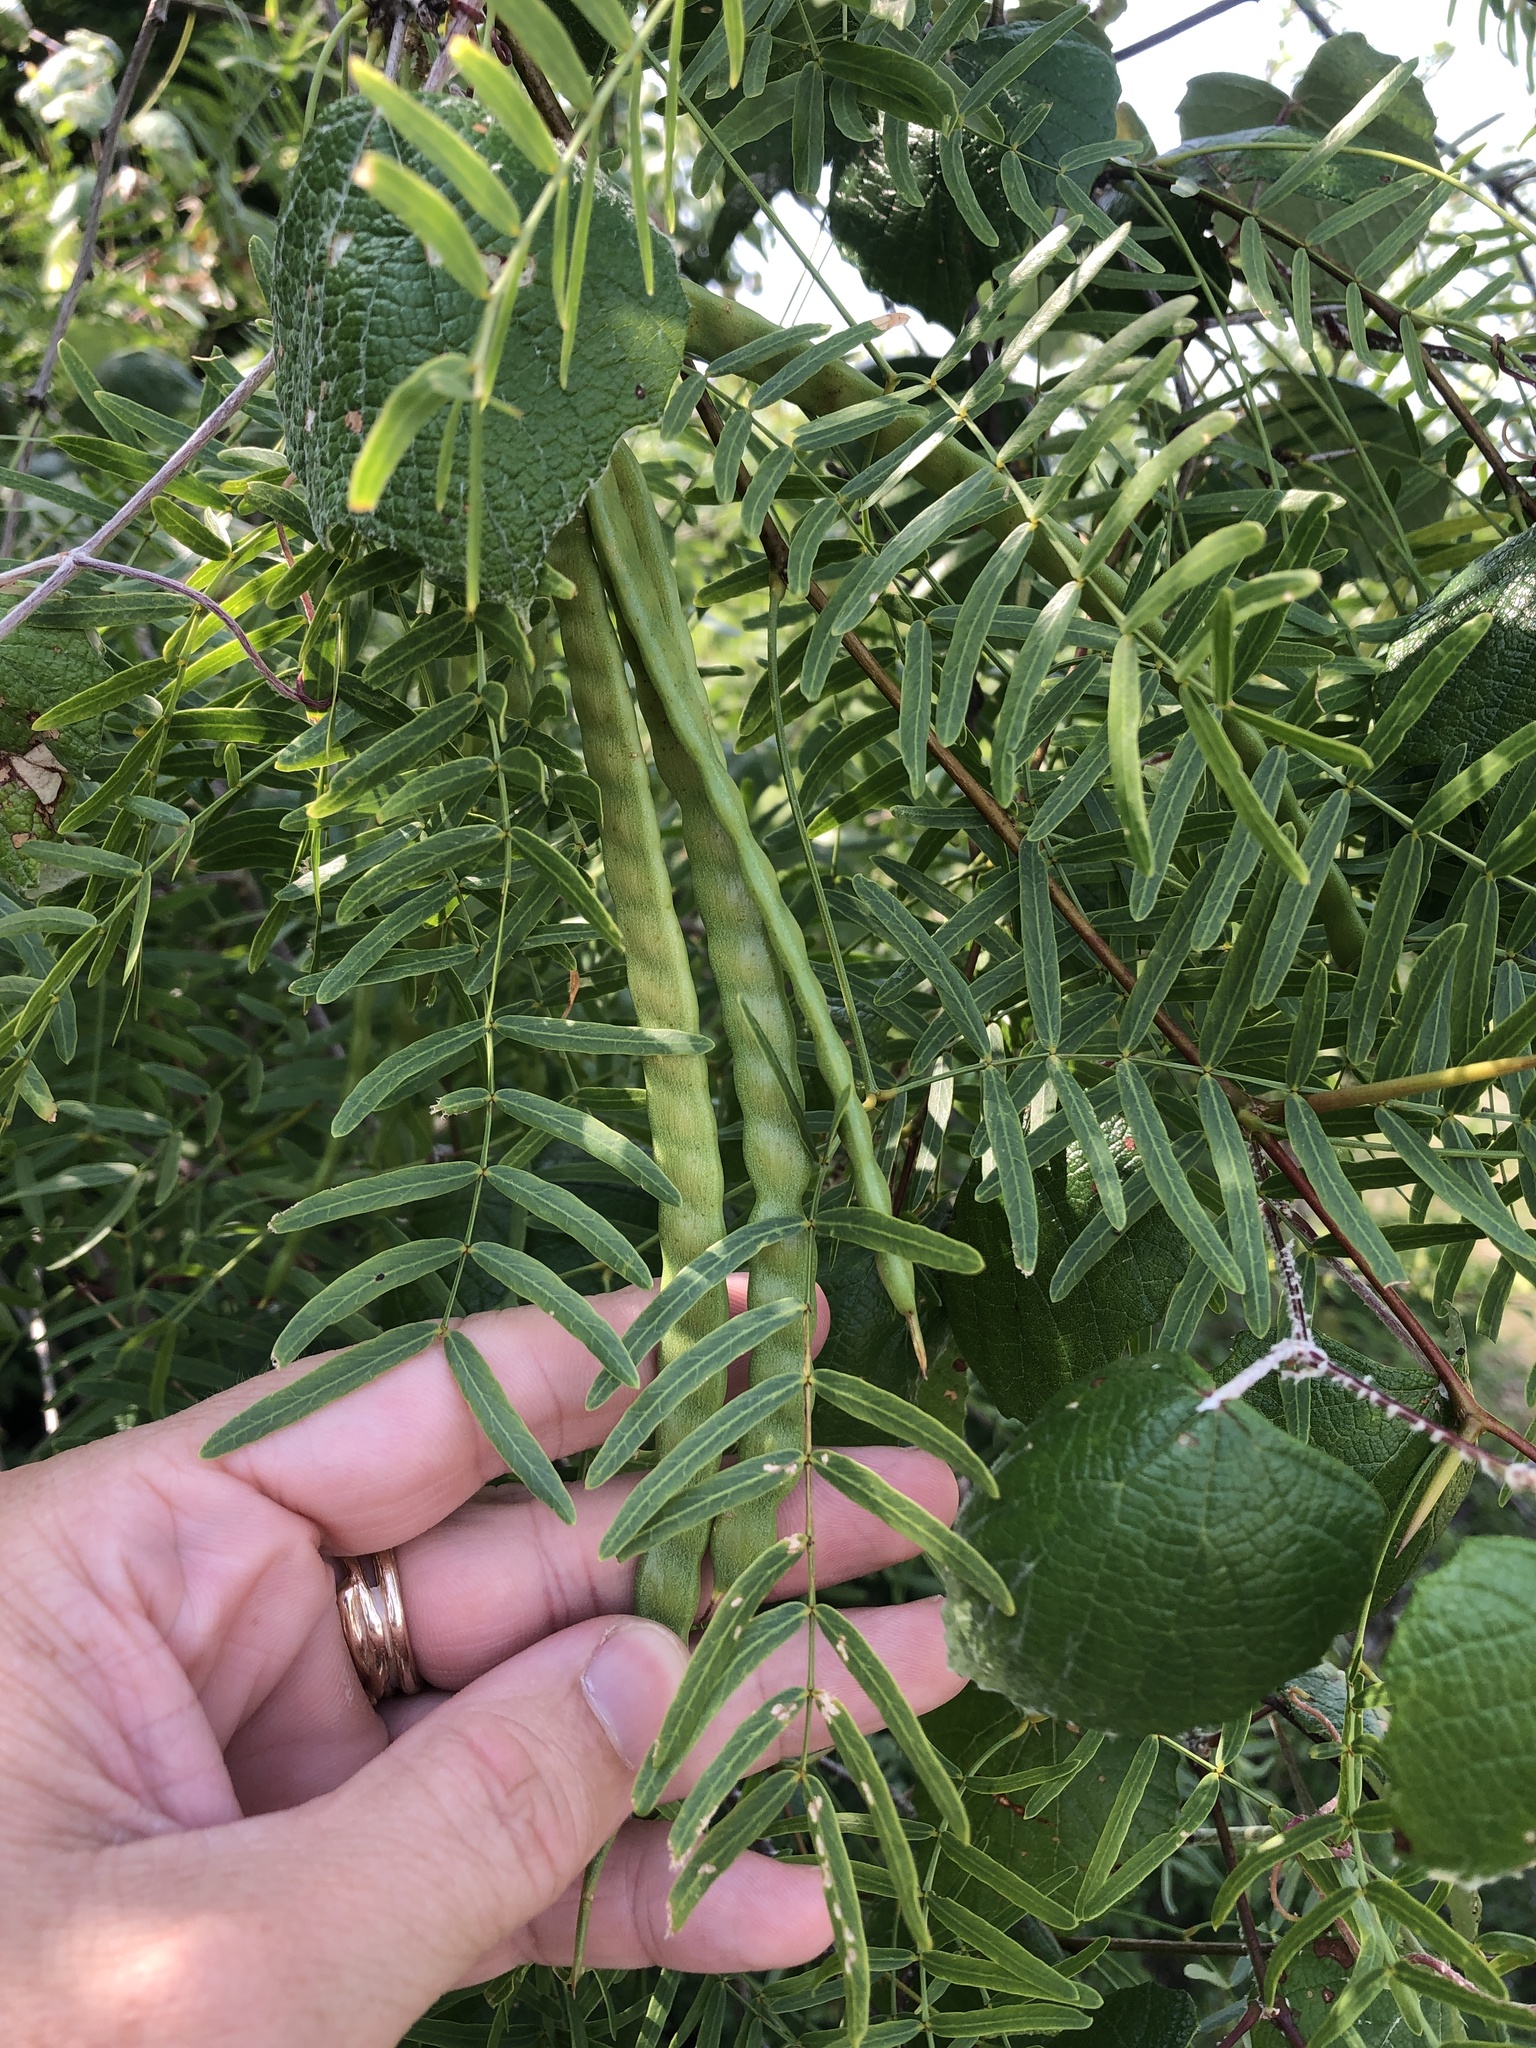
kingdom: Plantae
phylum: Tracheophyta
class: Magnoliopsida
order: Fabales
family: Fabaceae
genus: Prosopis
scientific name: Prosopis glandulosa
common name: Honey mesquite
